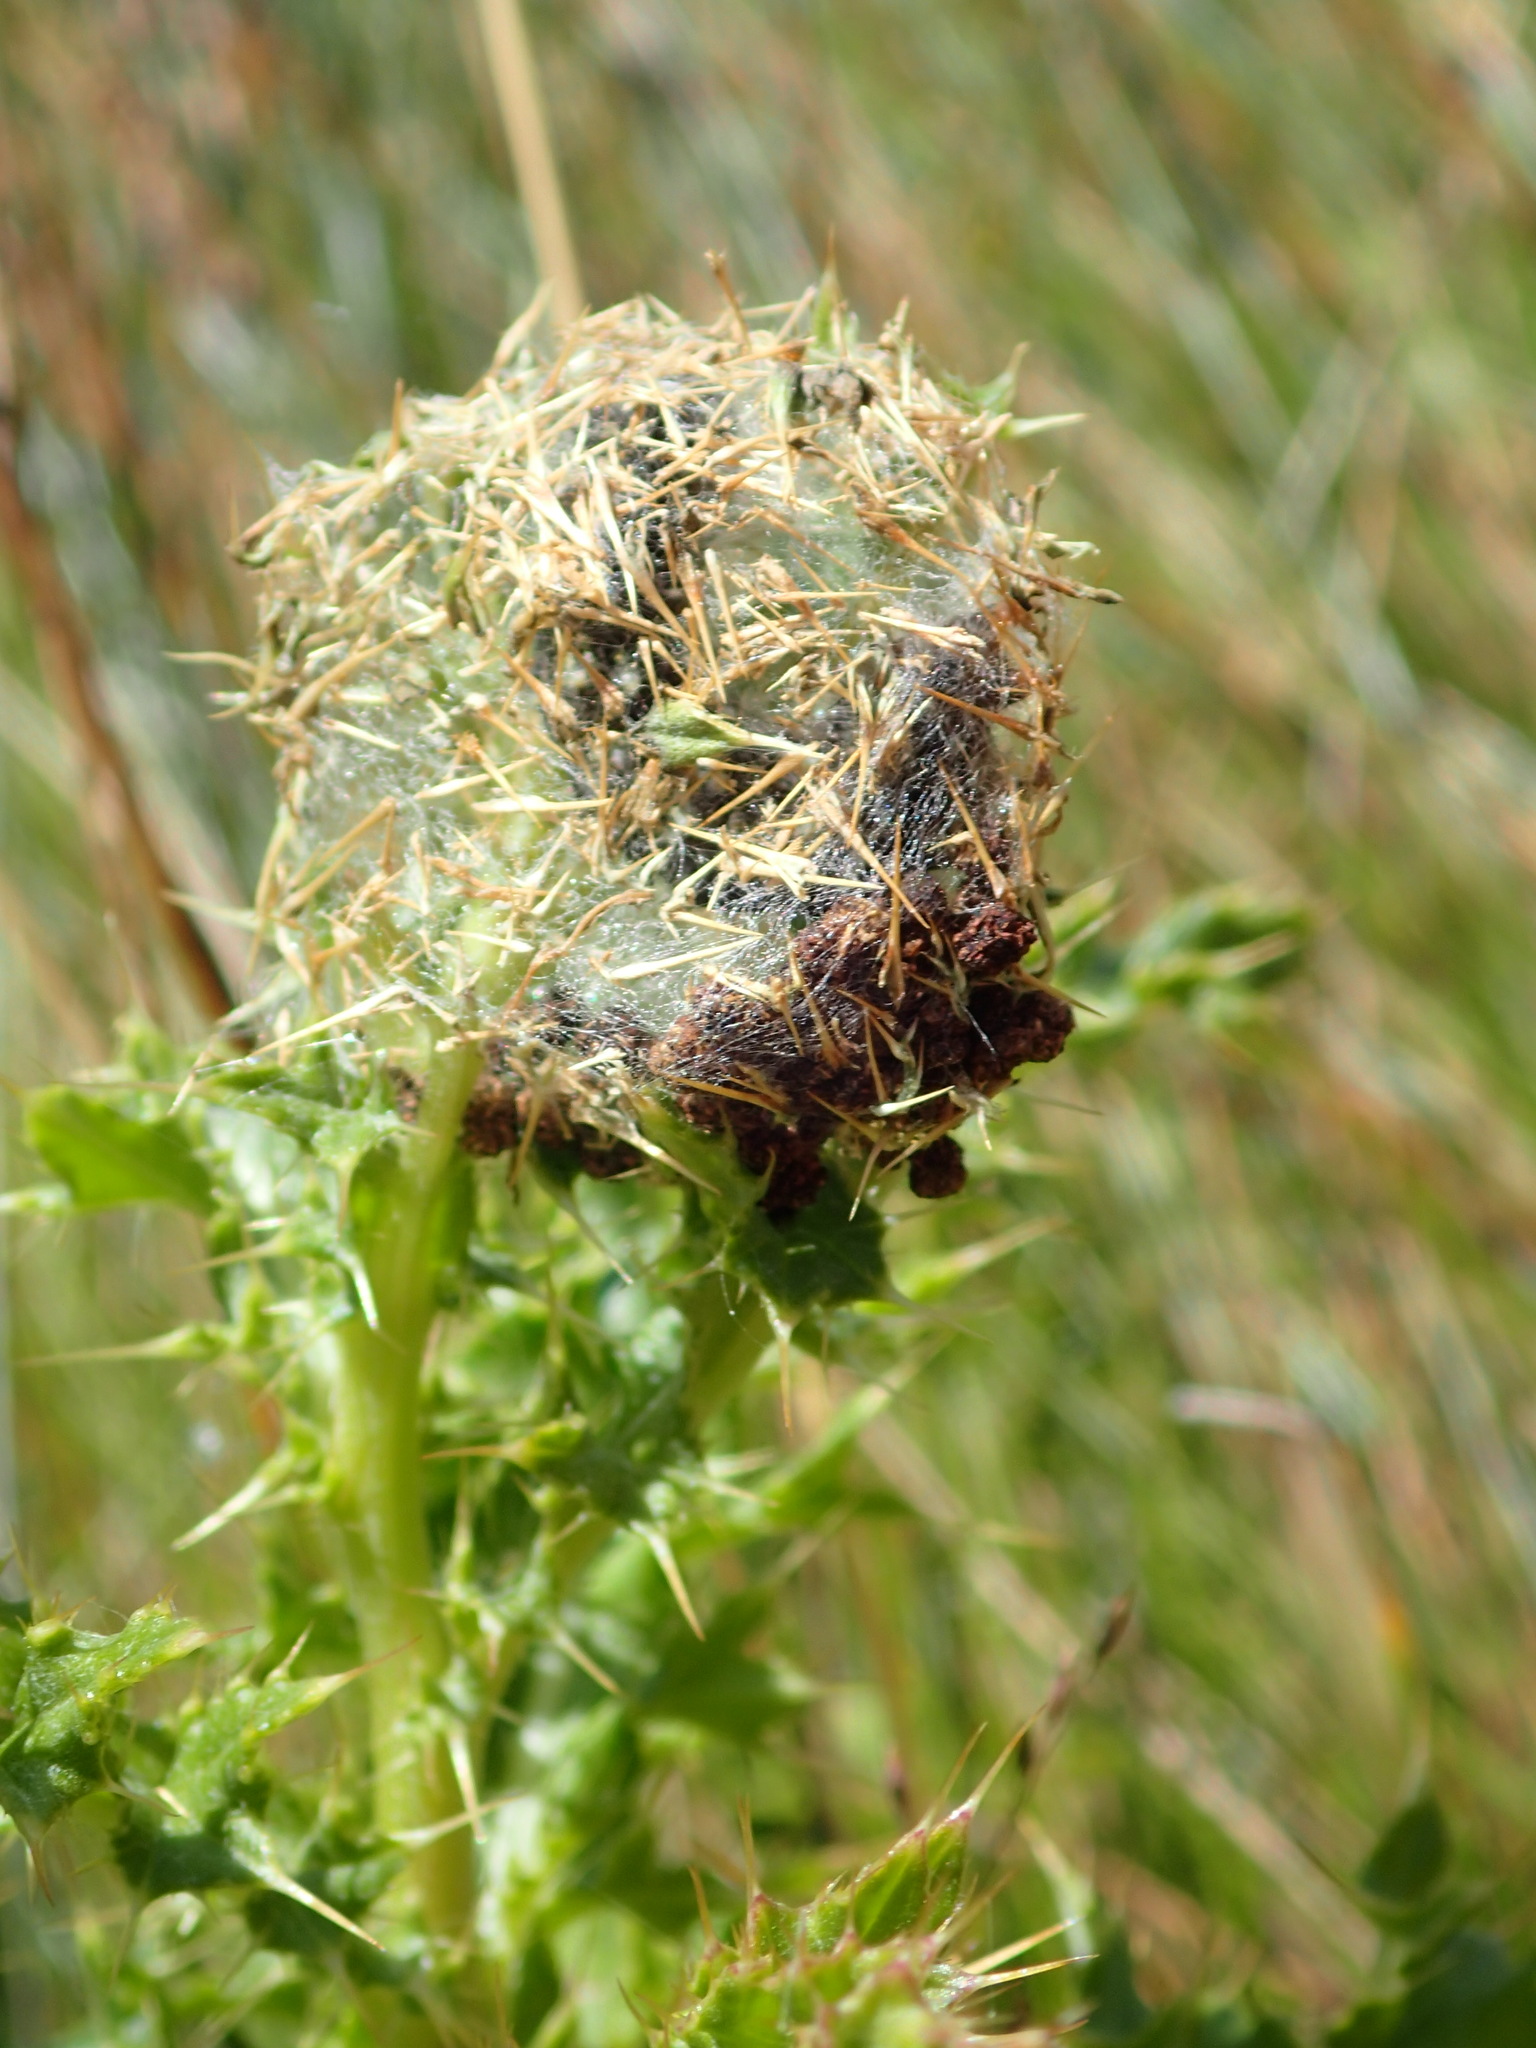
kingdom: Animalia
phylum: Arthropoda
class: Insecta
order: Lepidoptera
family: Nymphalidae
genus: Vanessa
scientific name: Vanessa cardui
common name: Painted lady
